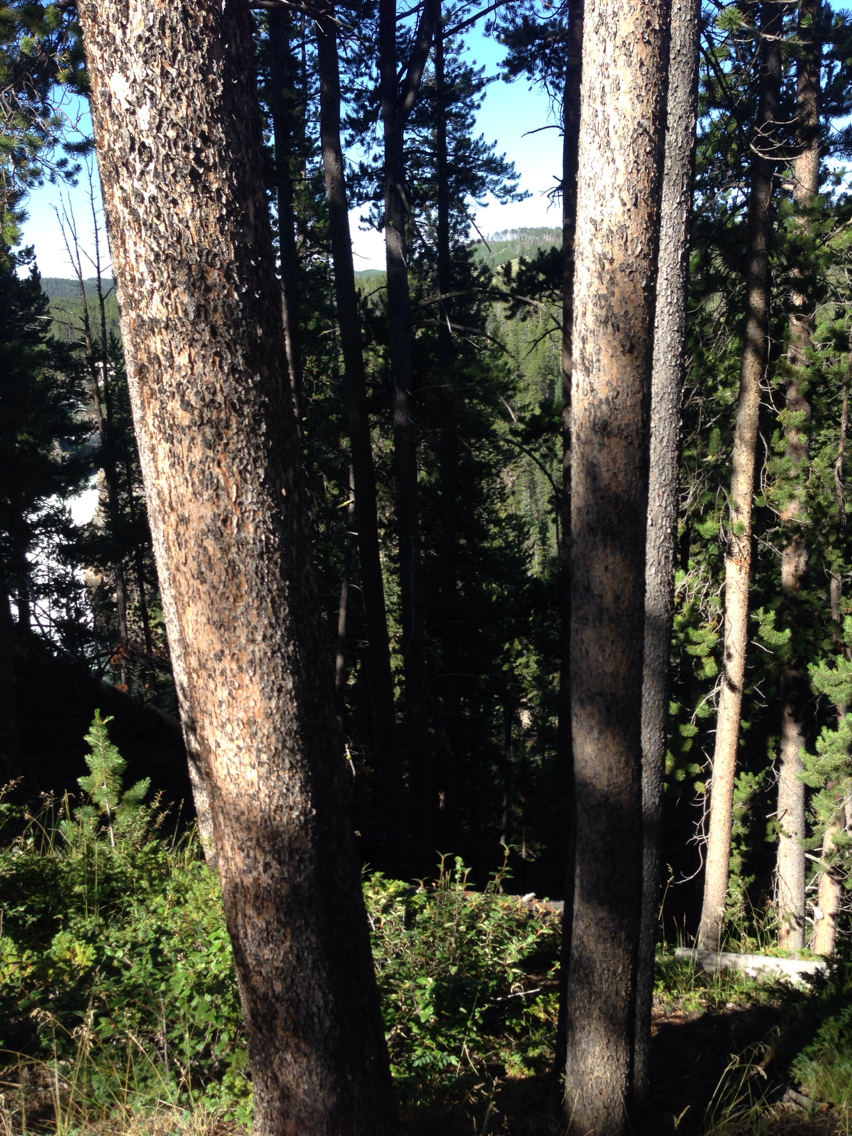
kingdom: Plantae
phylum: Tracheophyta
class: Pinopsida
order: Pinales
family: Pinaceae
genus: Pinus
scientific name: Pinus contorta
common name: Lodgepole pine
